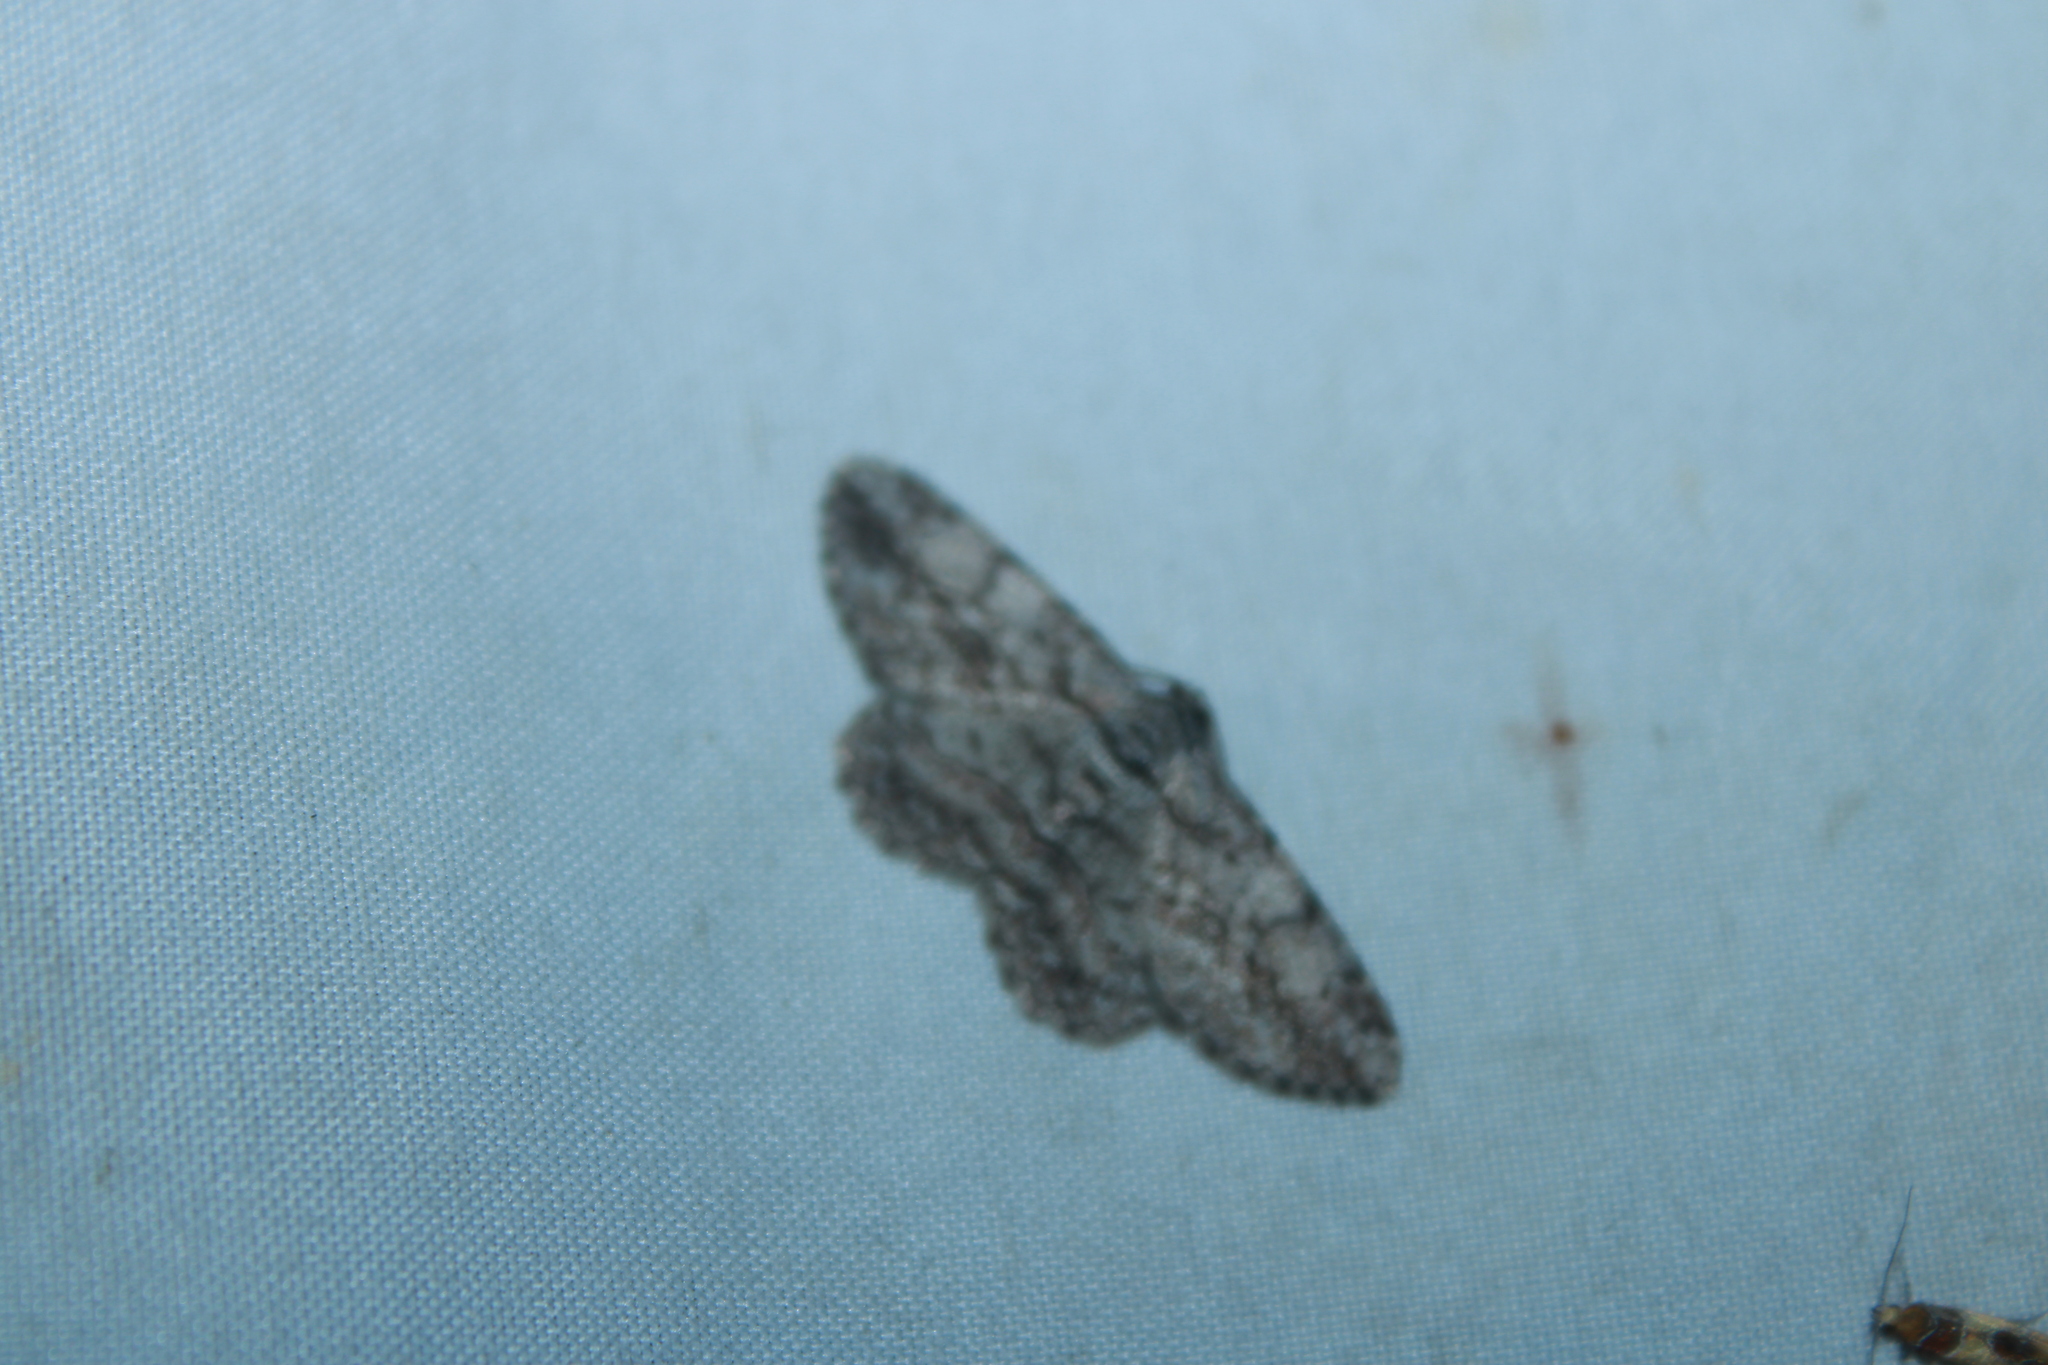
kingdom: Animalia
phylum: Arthropoda
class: Insecta
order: Lepidoptera
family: Geometridae
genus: Anavitrinella
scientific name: Anavitrinella pampinaria
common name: Common gray
